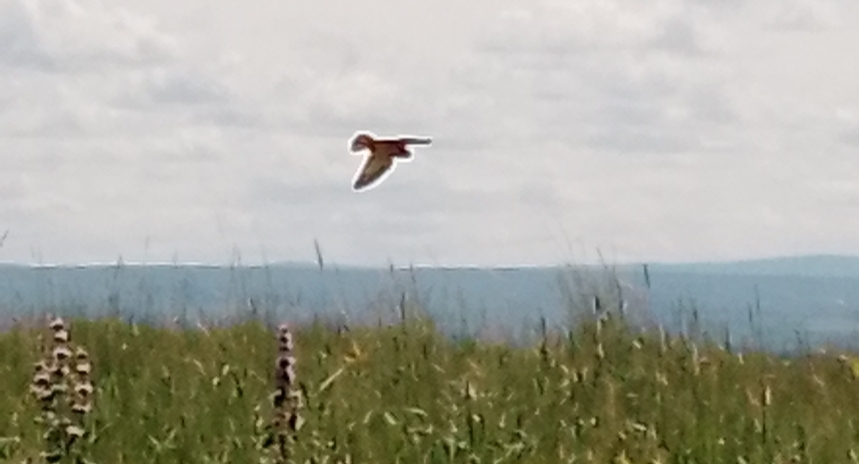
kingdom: Animalia
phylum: Chordata
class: Aves
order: Falconiformes
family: Falconidae
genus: Falco
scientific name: Falco tinnunculus
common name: Common kestrel
